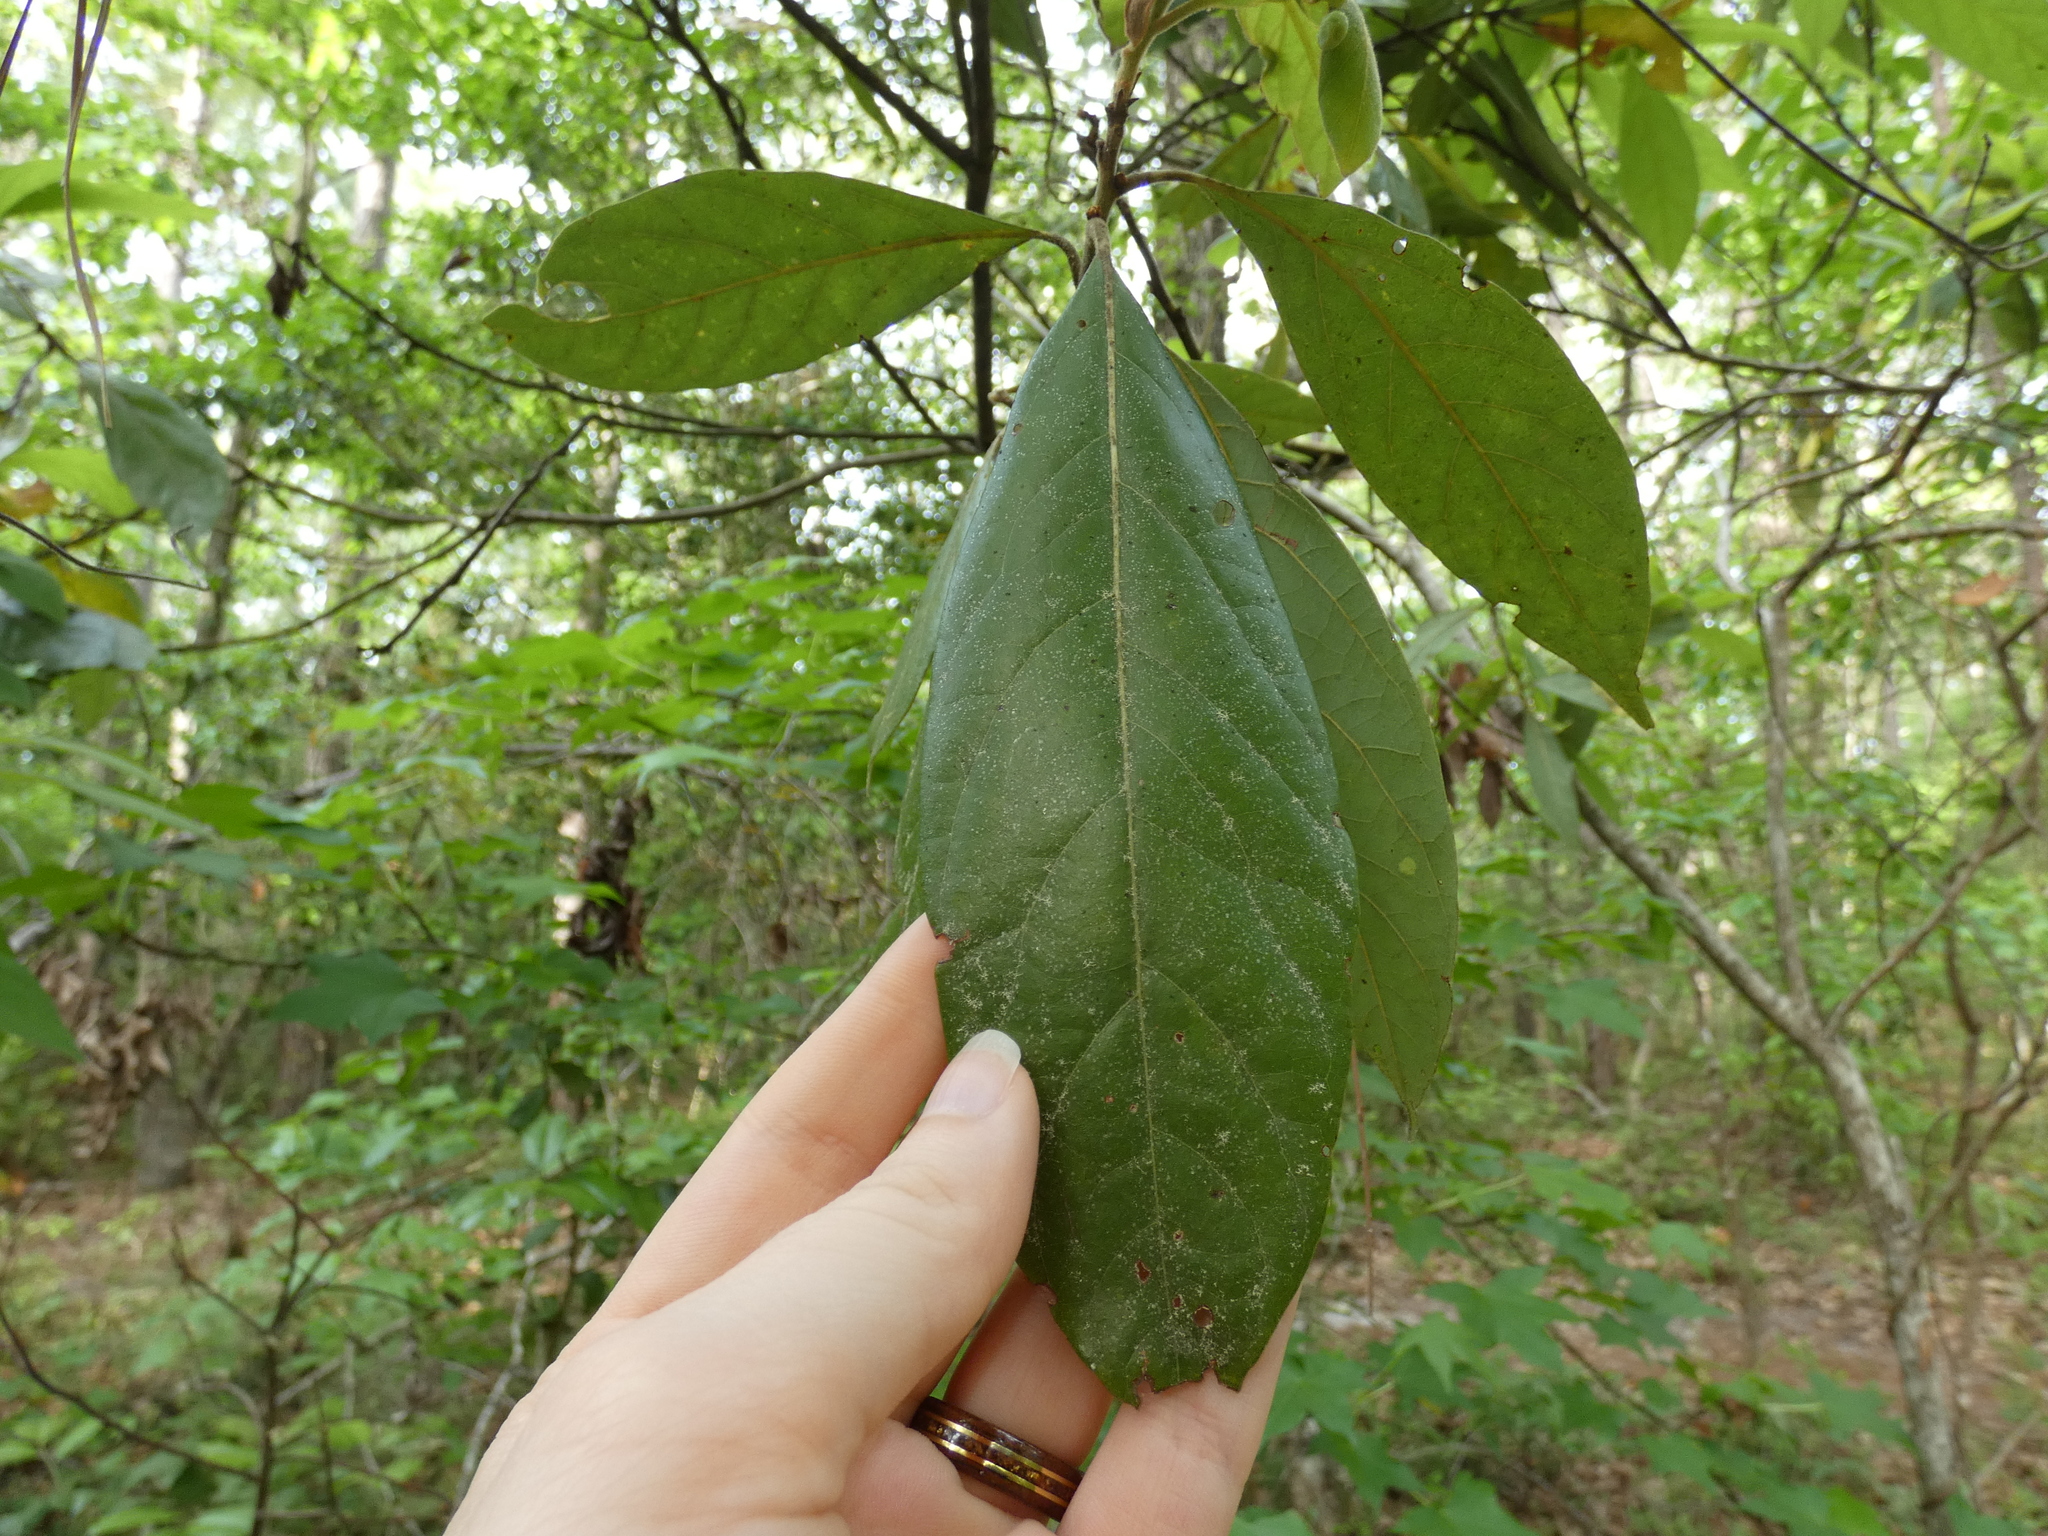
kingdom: Plantae
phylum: Tracheophyta
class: Magnoliopsida
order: Laurales
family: Lauraceae
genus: Persea
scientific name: Persea palustris
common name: Swampbay
